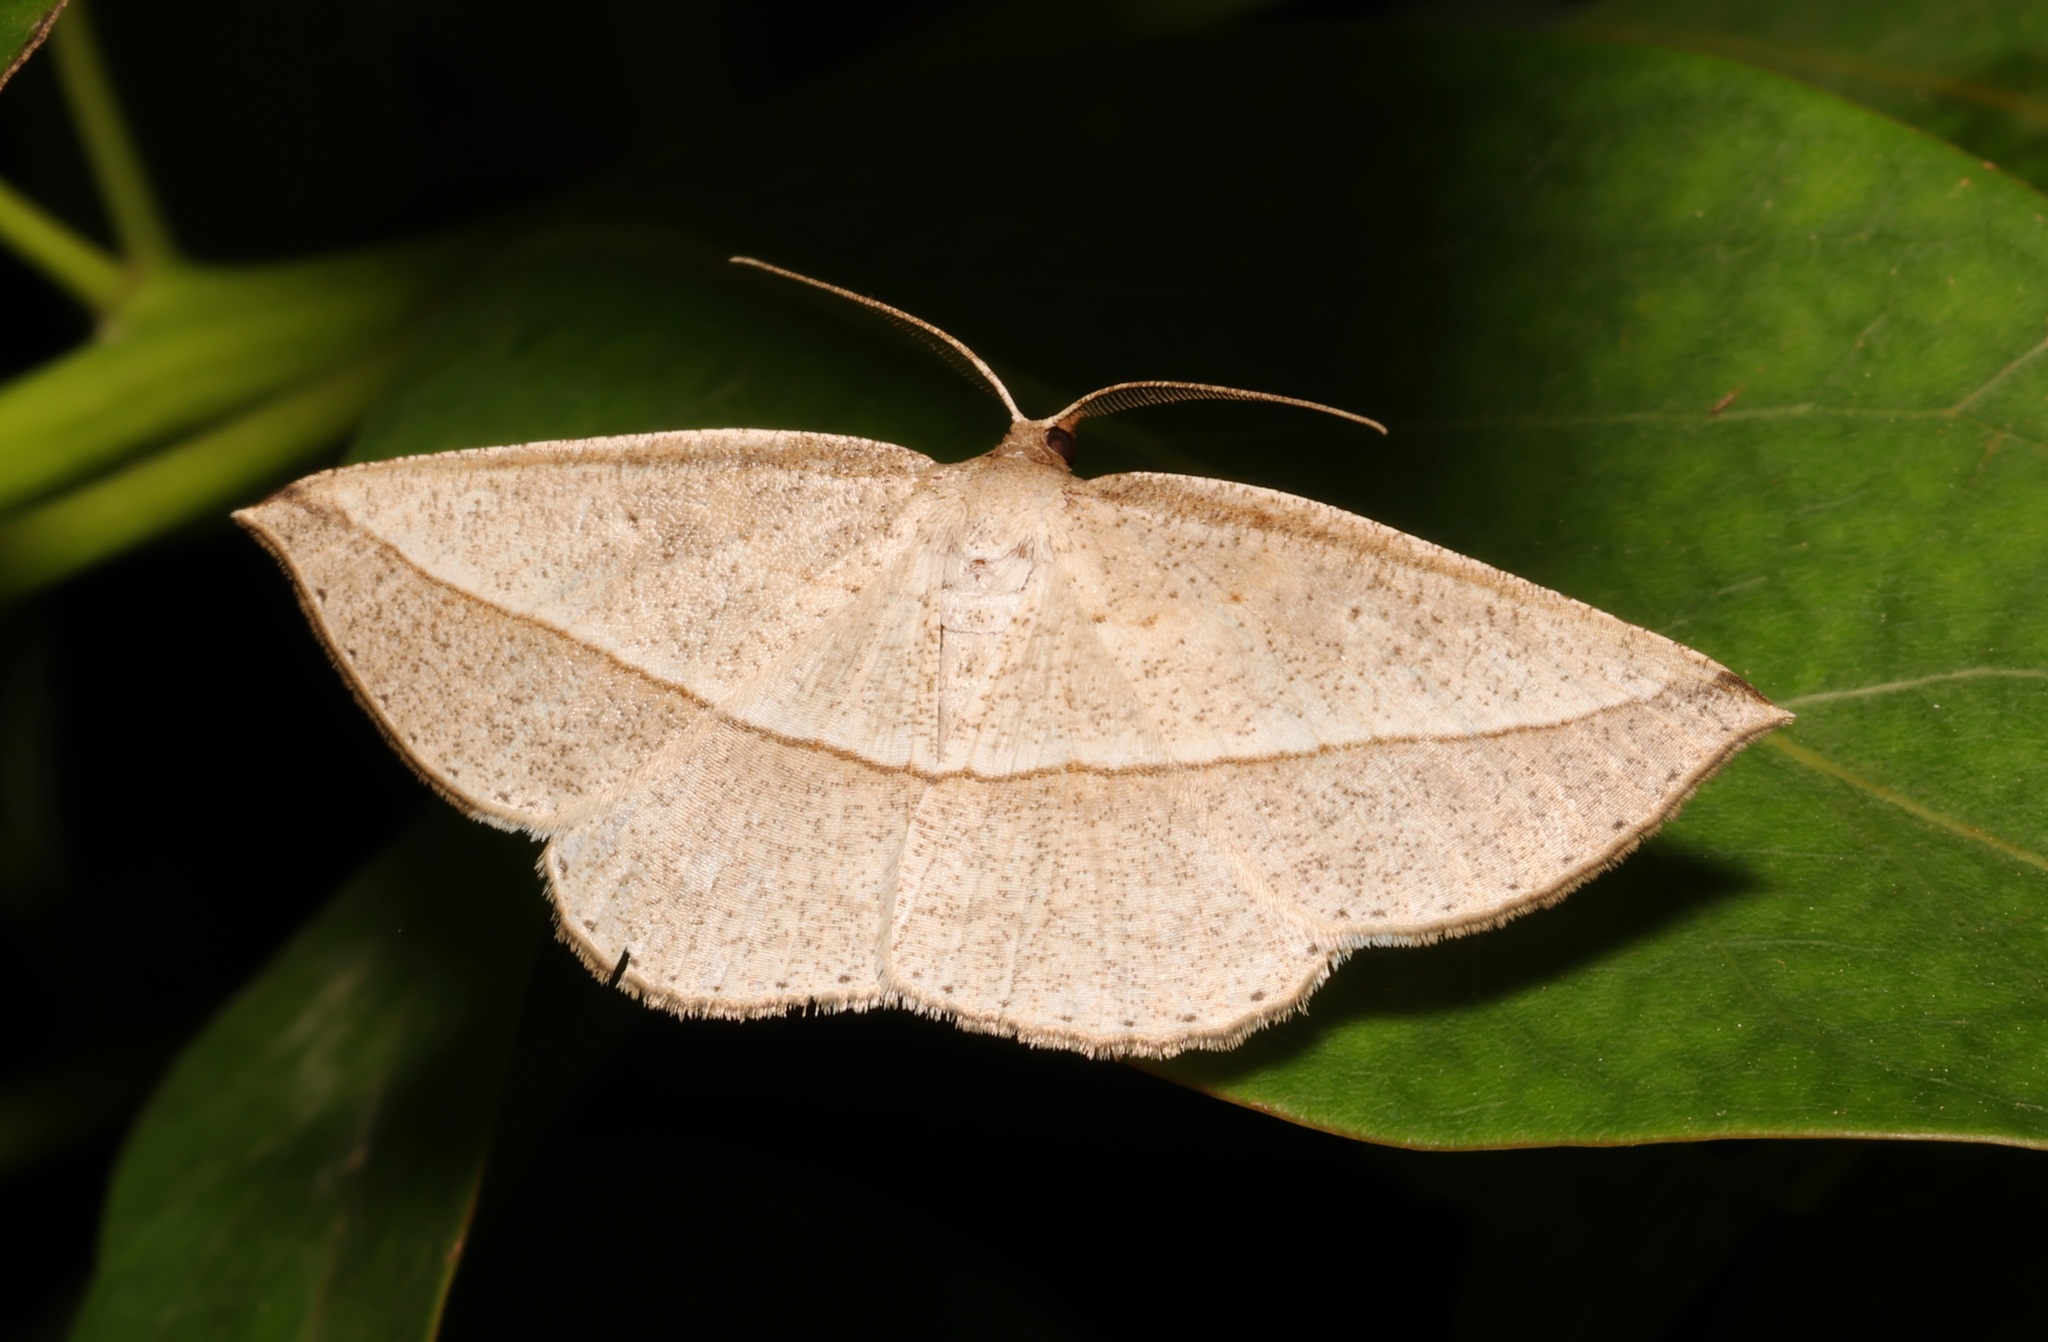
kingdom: Animalia
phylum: Arthropoda
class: Insecta
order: Lepidoptera
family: Geometridae
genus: Heteralex
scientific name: Heteralex unilinea
